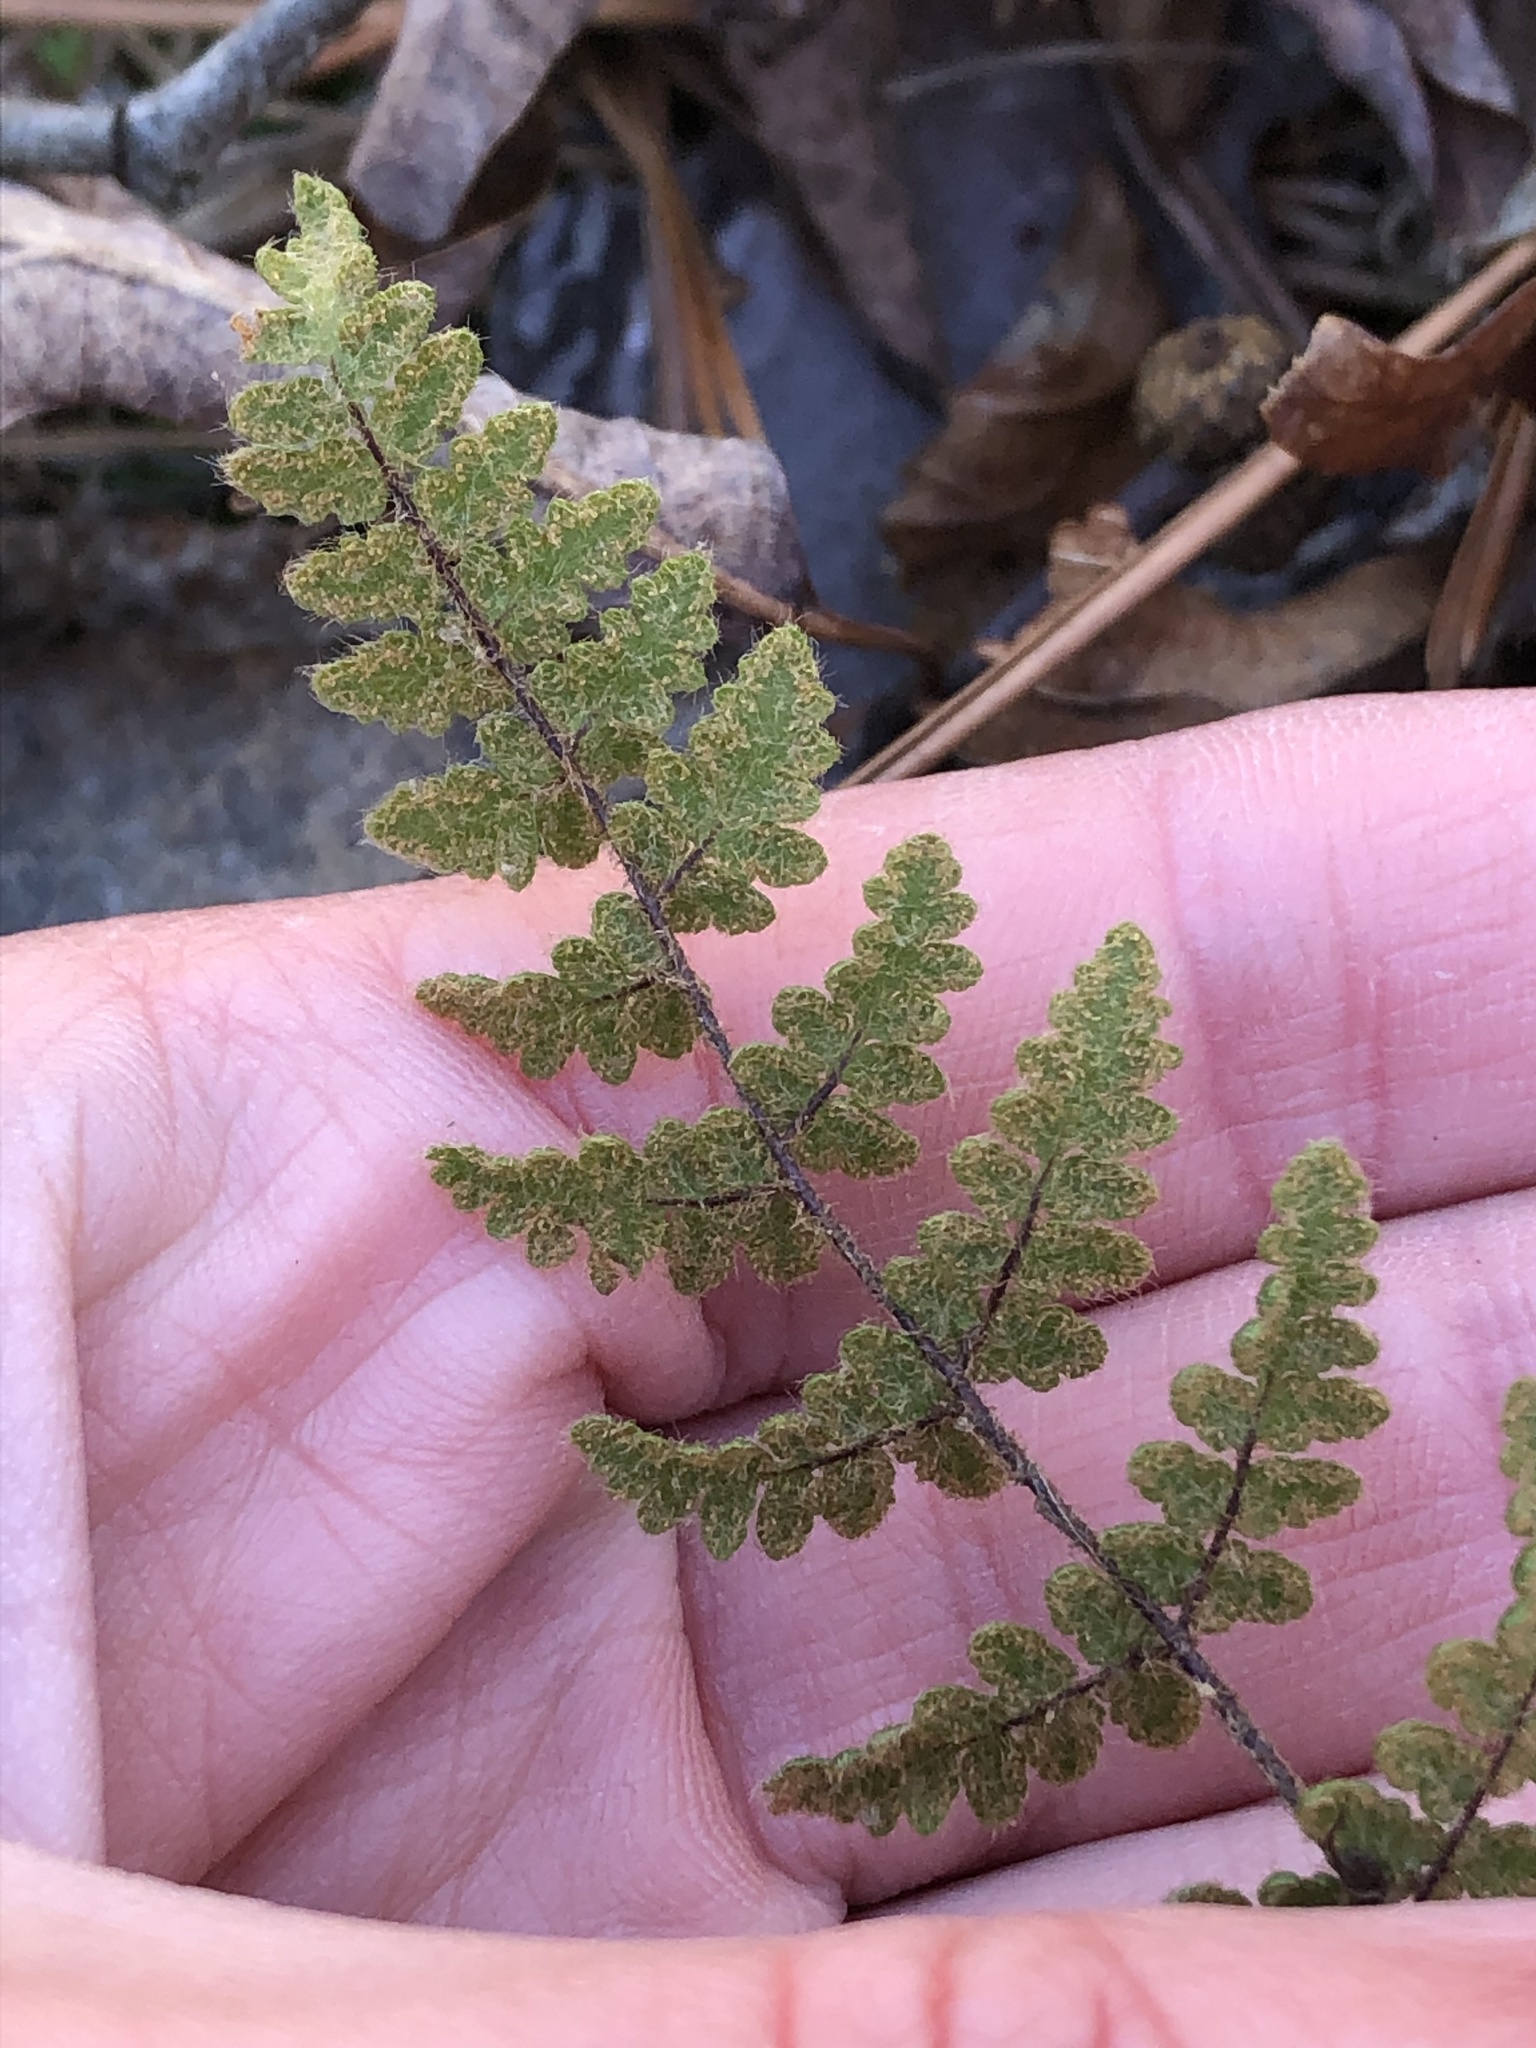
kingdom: Plantae
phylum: Tracheophyta
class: Polypodiopsida
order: Polypodiales
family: Pteridaceae
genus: Myriopteris
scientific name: Myriopteris lanosa
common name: Hairy lip fern
